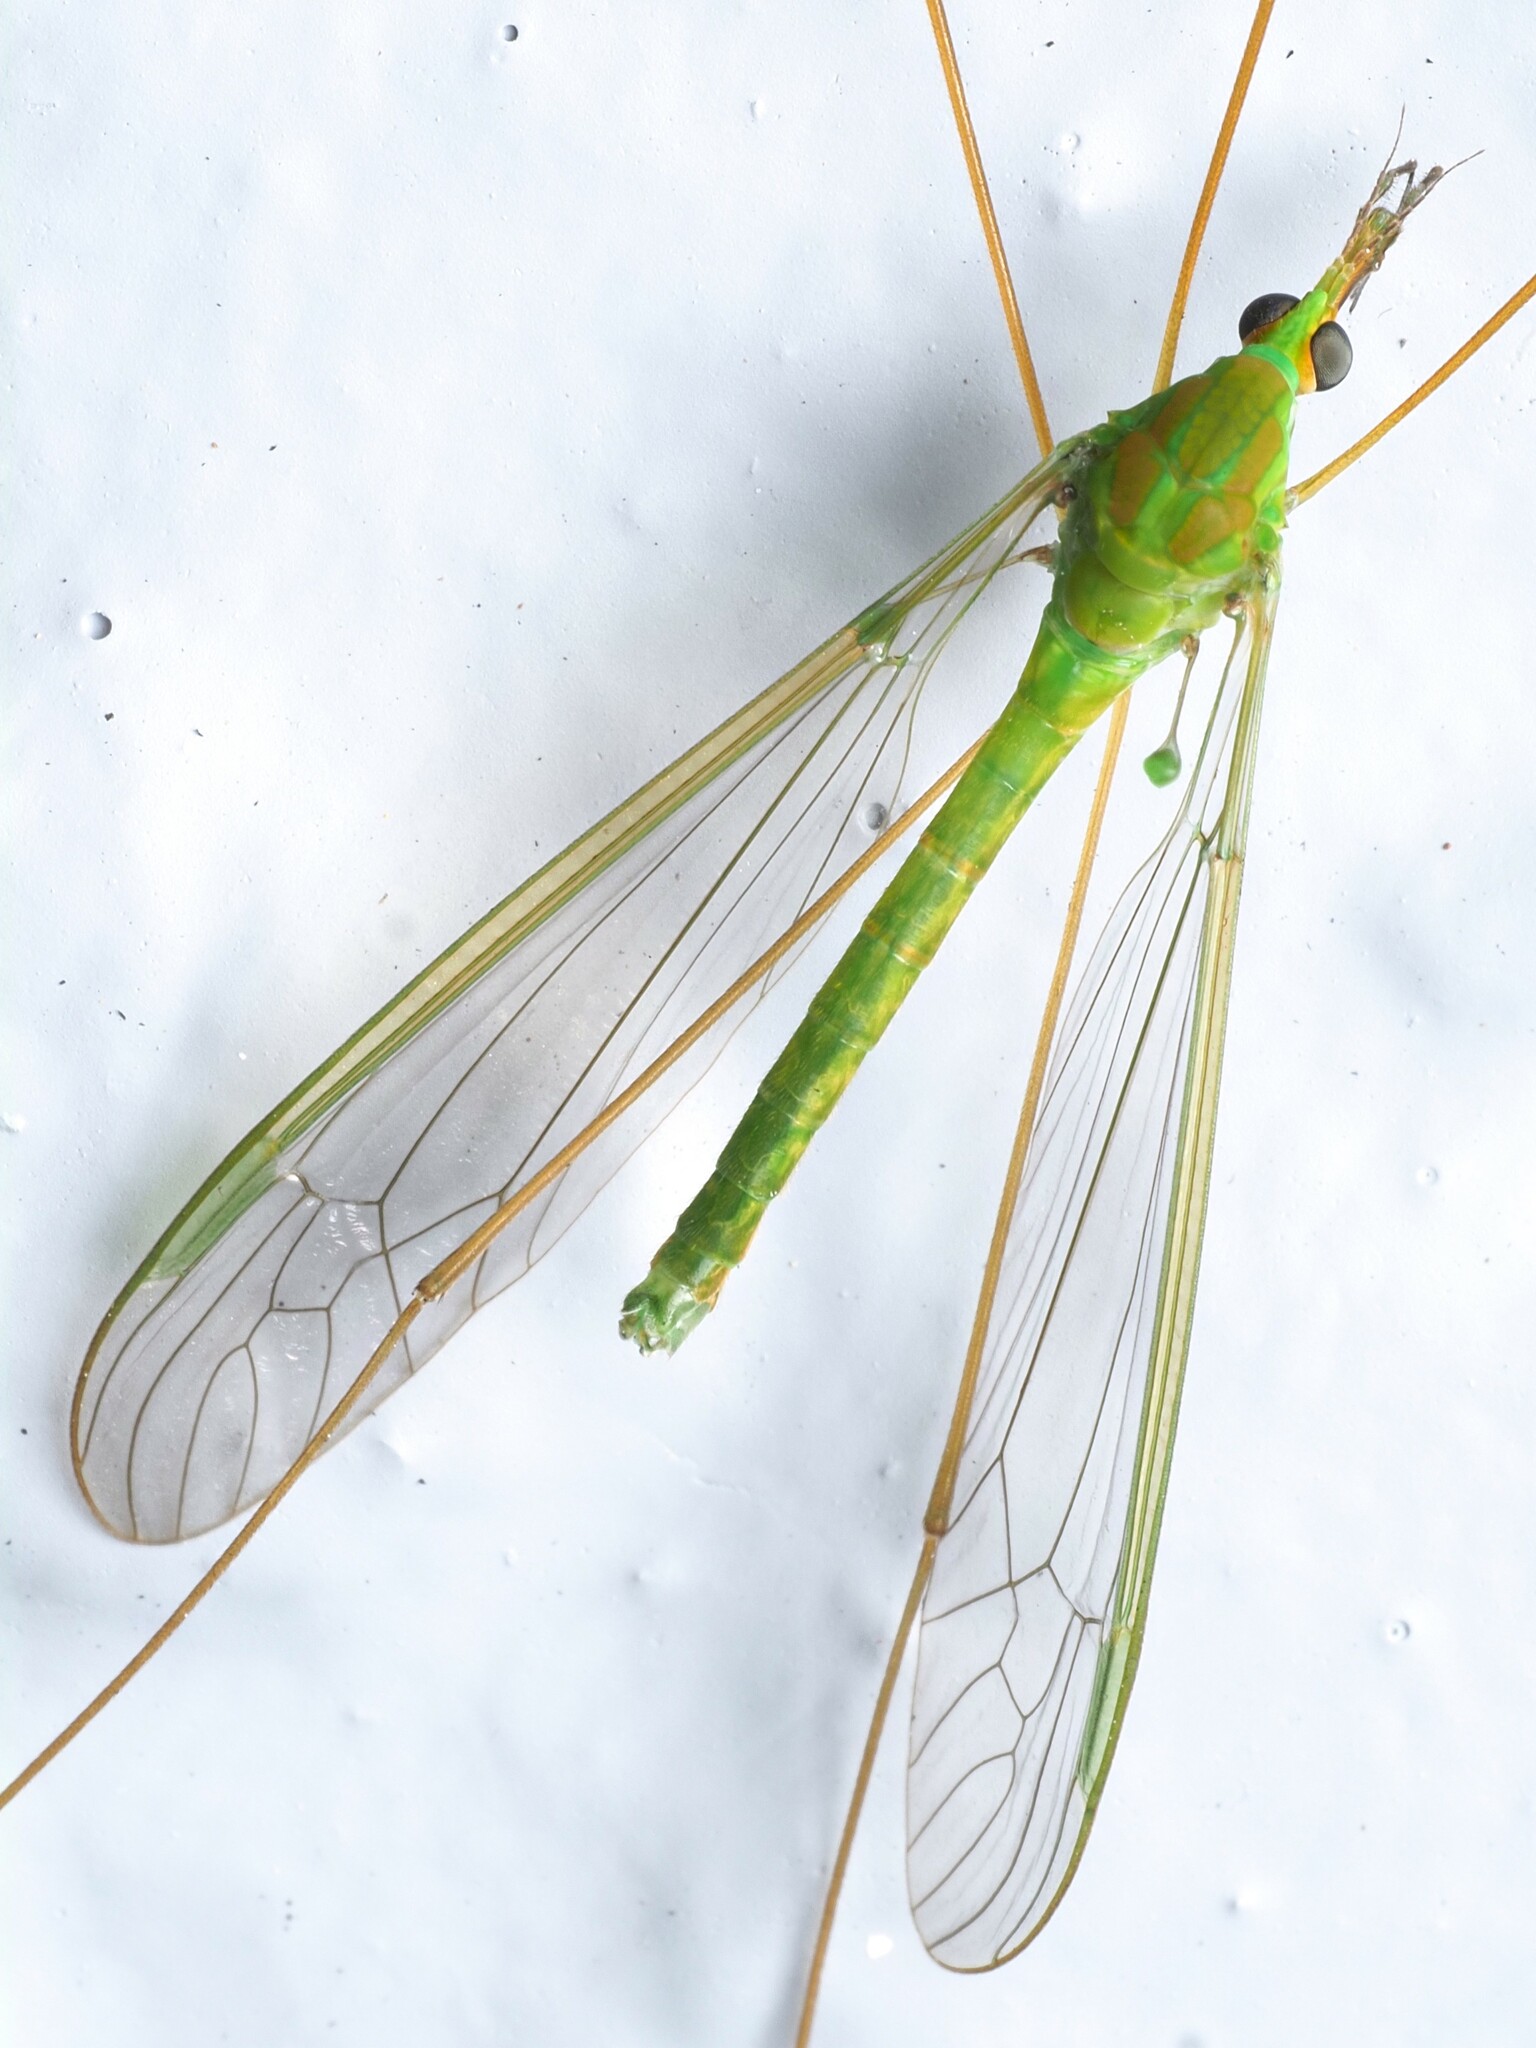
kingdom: Animalia
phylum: Arthropoda
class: Insecta
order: Diptera
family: Tipulidae
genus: Leptotarsus
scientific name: Leptotarsus virescens
